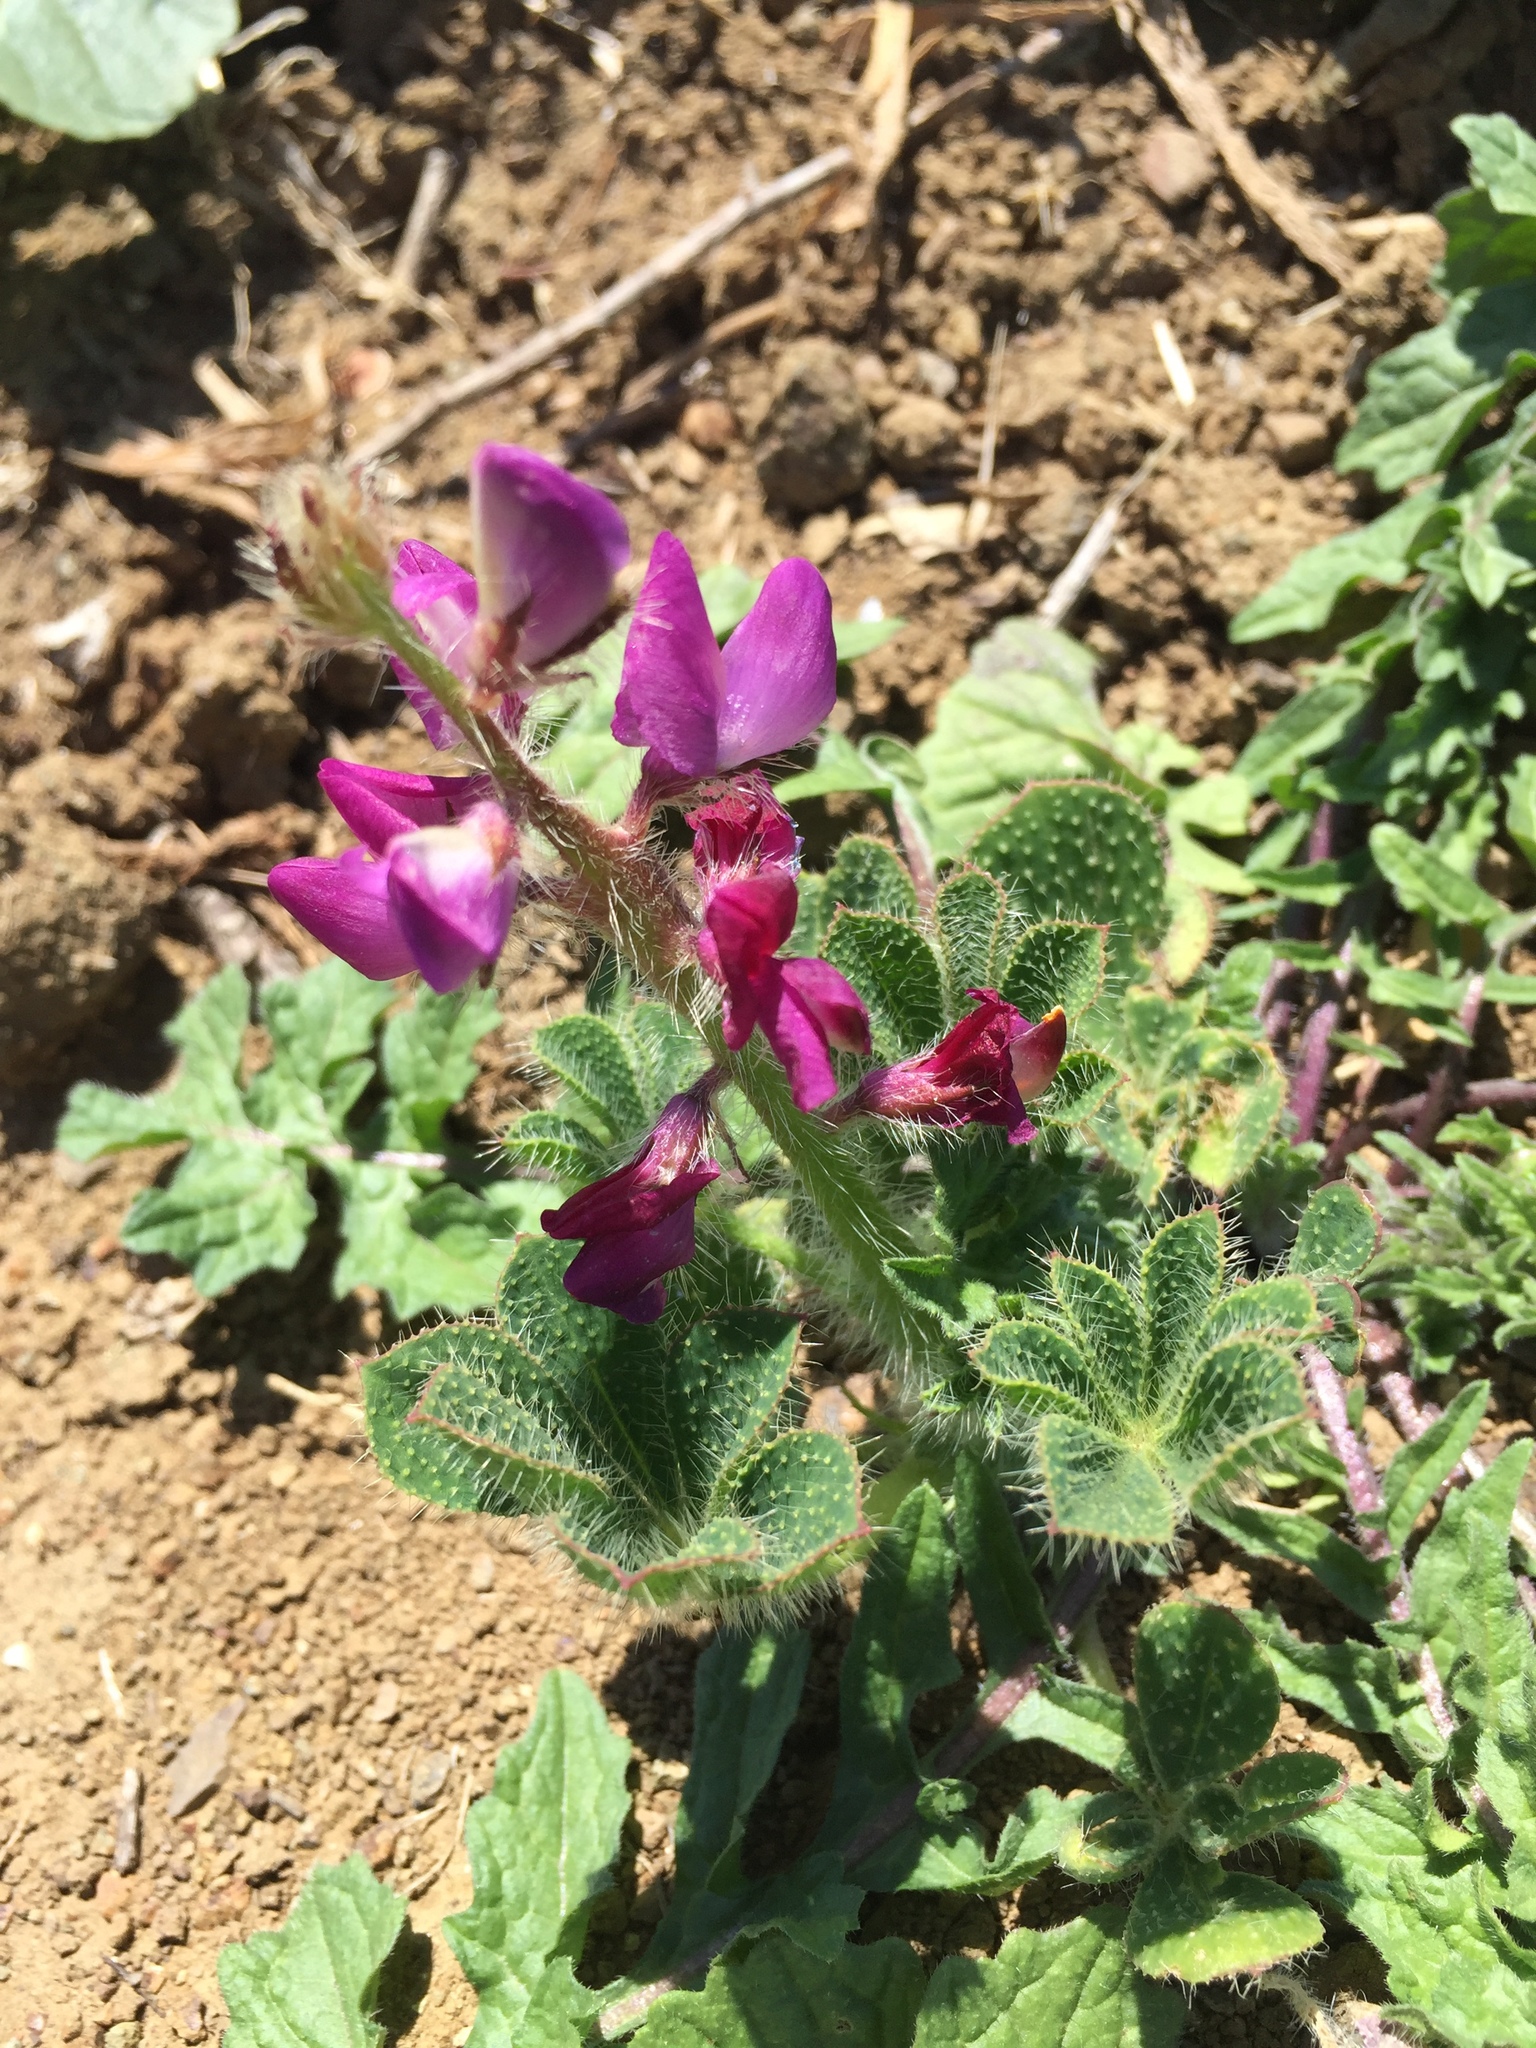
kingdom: Plantae
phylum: Tracheophyta
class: Magnoliopsida
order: Fabales
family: Fabaceae
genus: Lupinus
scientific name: Lupinus hirsutissimus
